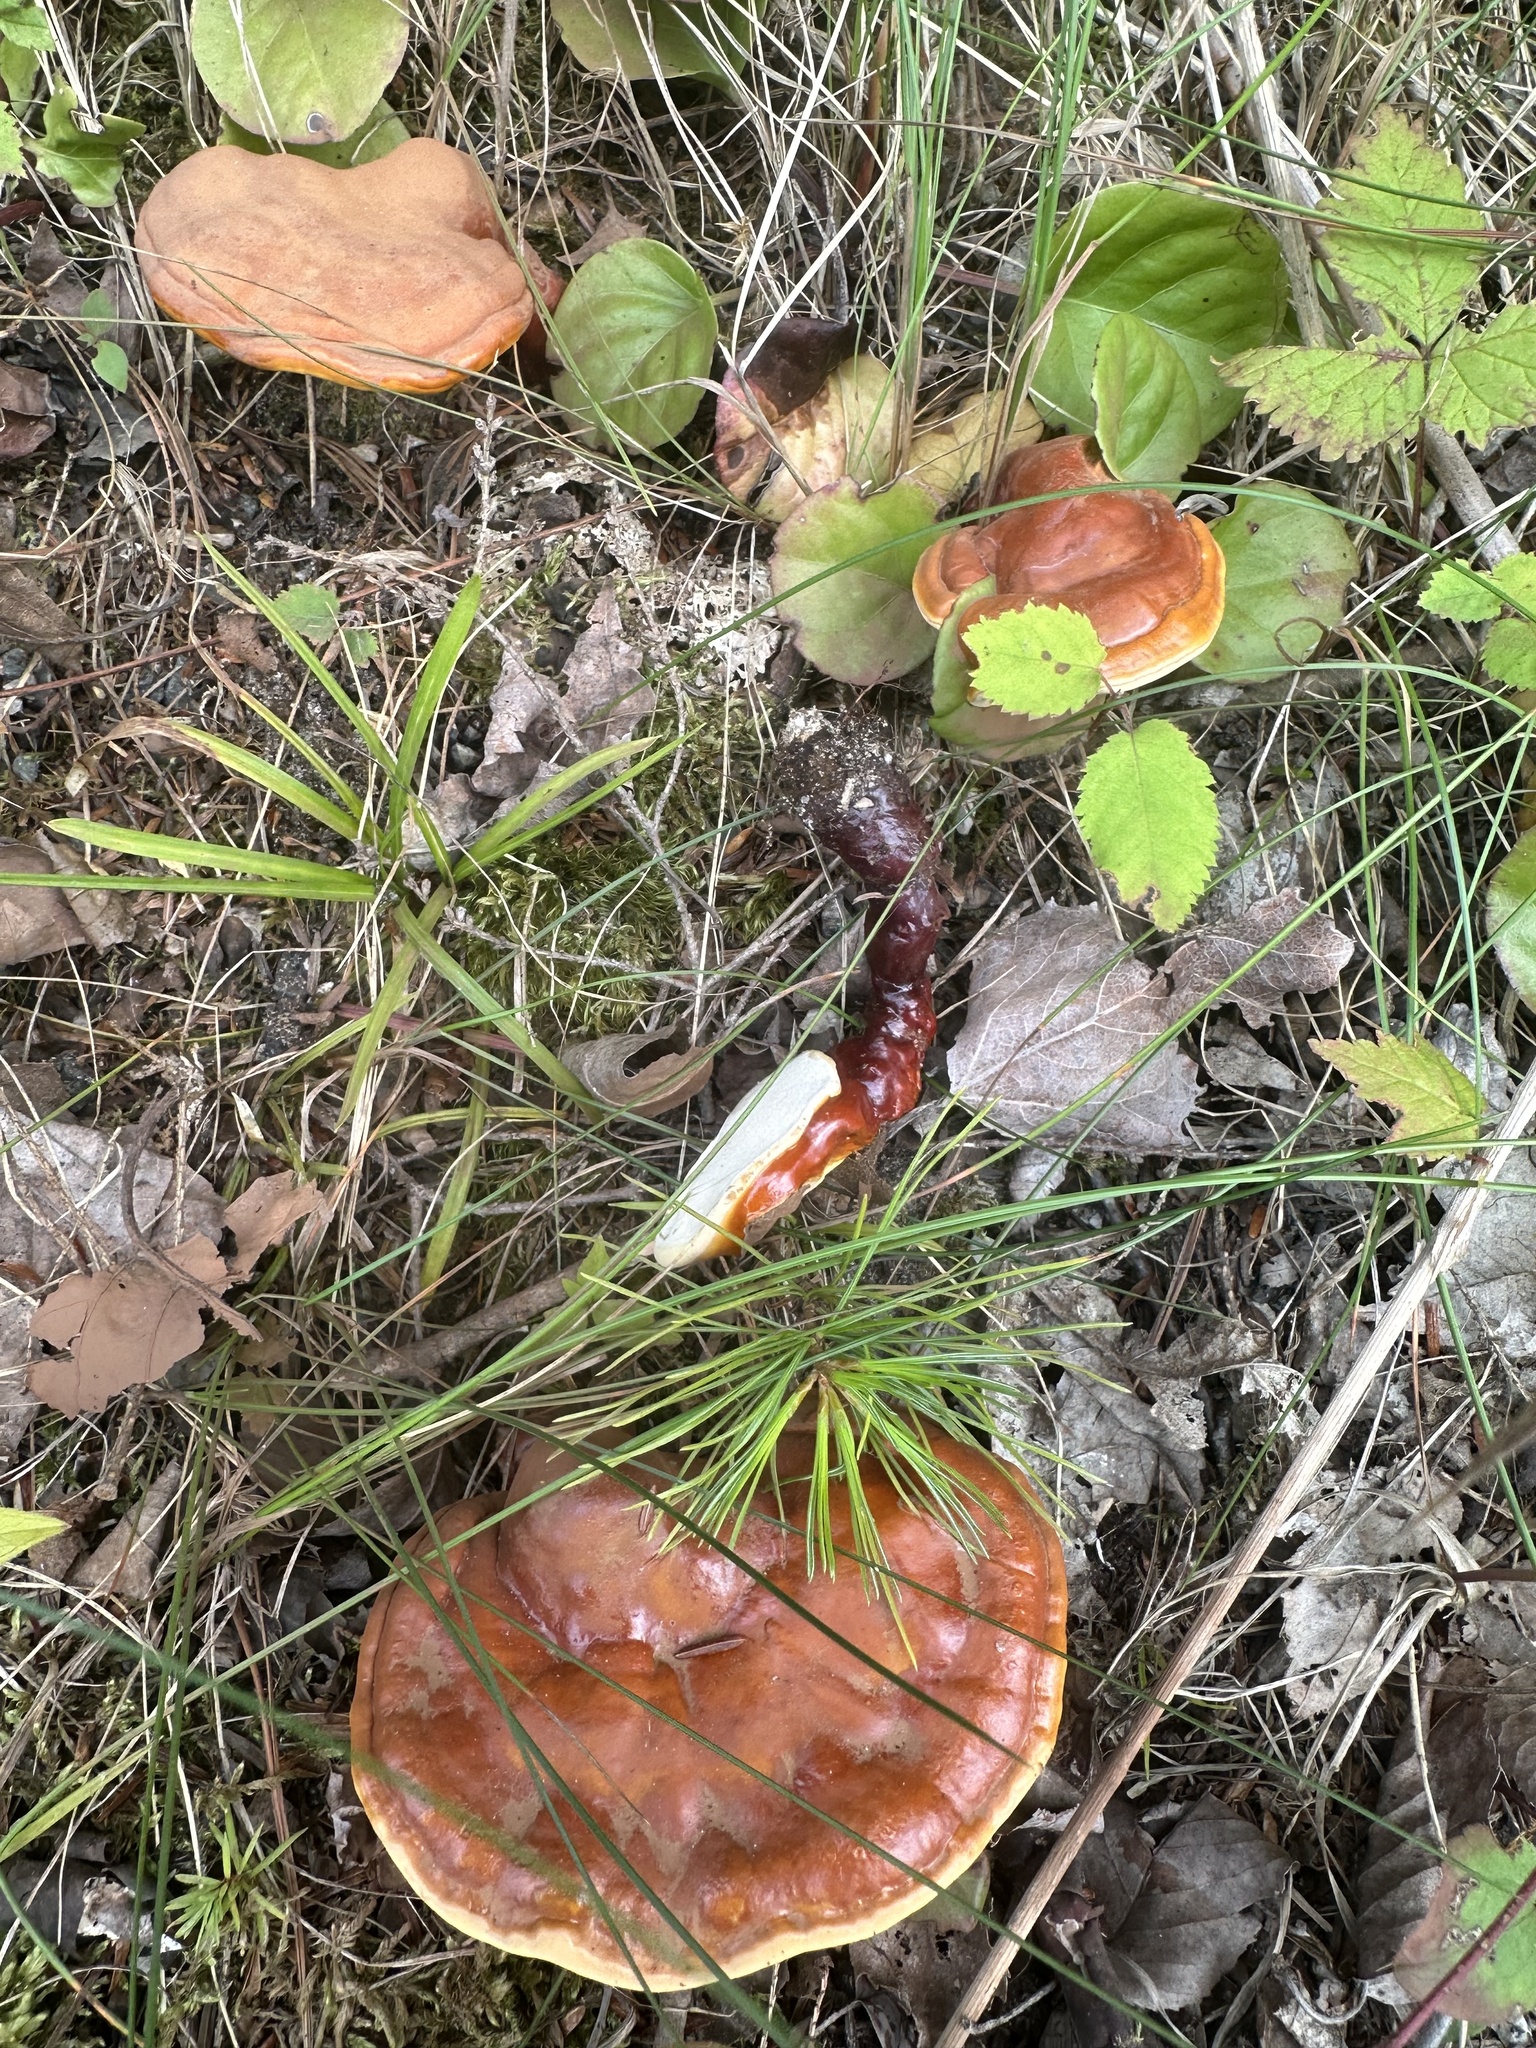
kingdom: Fungi
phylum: Basidiomycota
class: Agaricomycetes
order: Polyporales
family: Polyporaceae
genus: Ganoderma
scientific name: Ganoderma tsugae
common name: Hemlock varnish shelf
